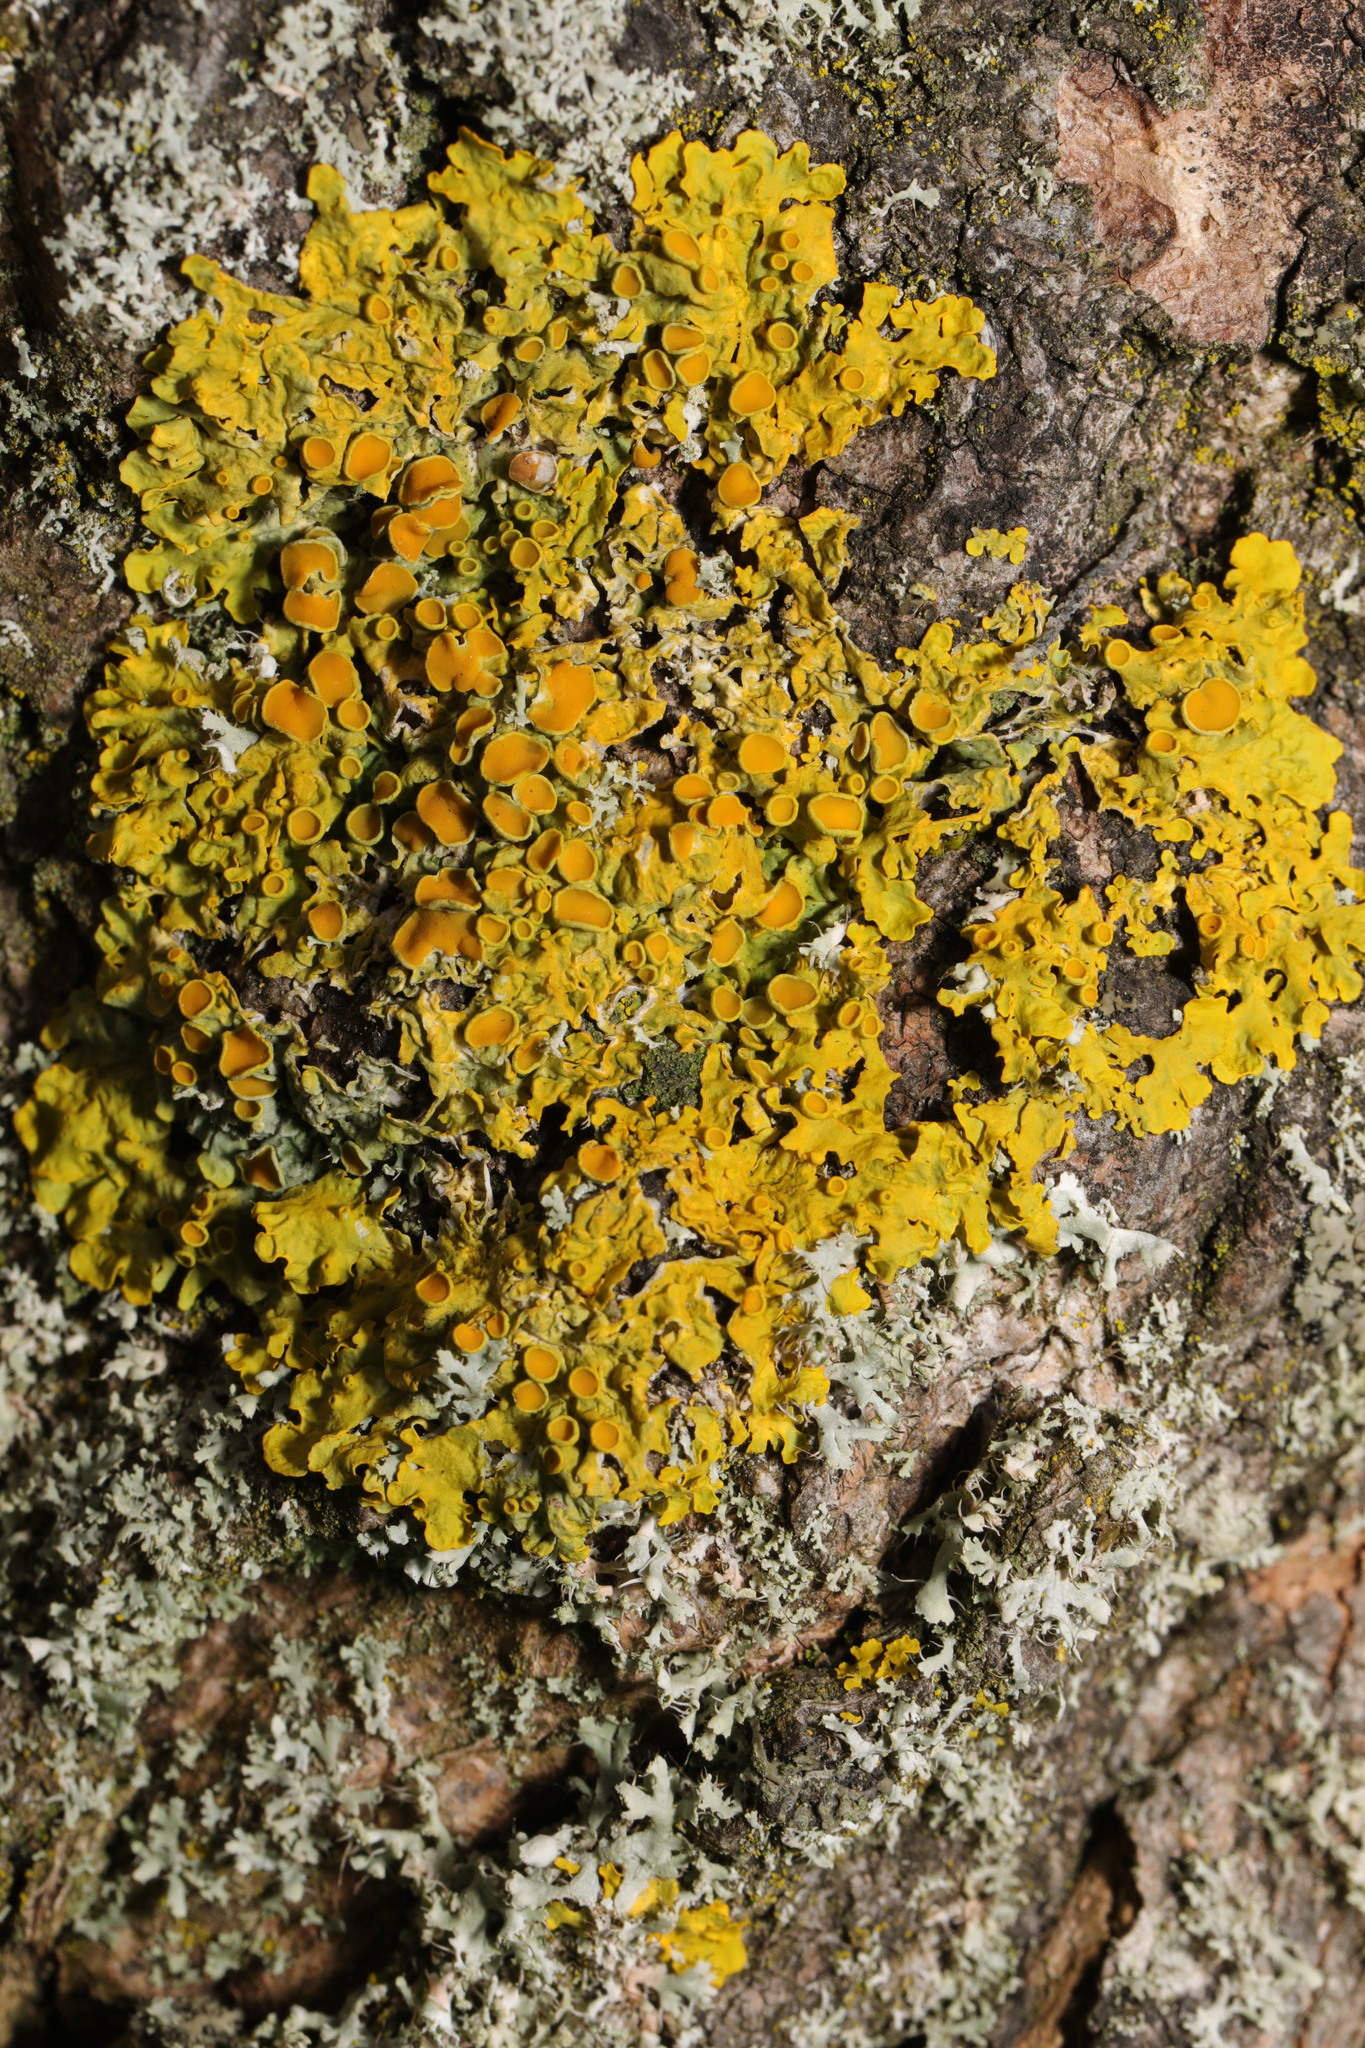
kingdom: Fungi
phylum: Ascomycota
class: Lecanoromycetes
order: Teloschistales
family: Teloschistaceae
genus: Xanthoria
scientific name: Xanthoria parietina
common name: Common orange lichen
